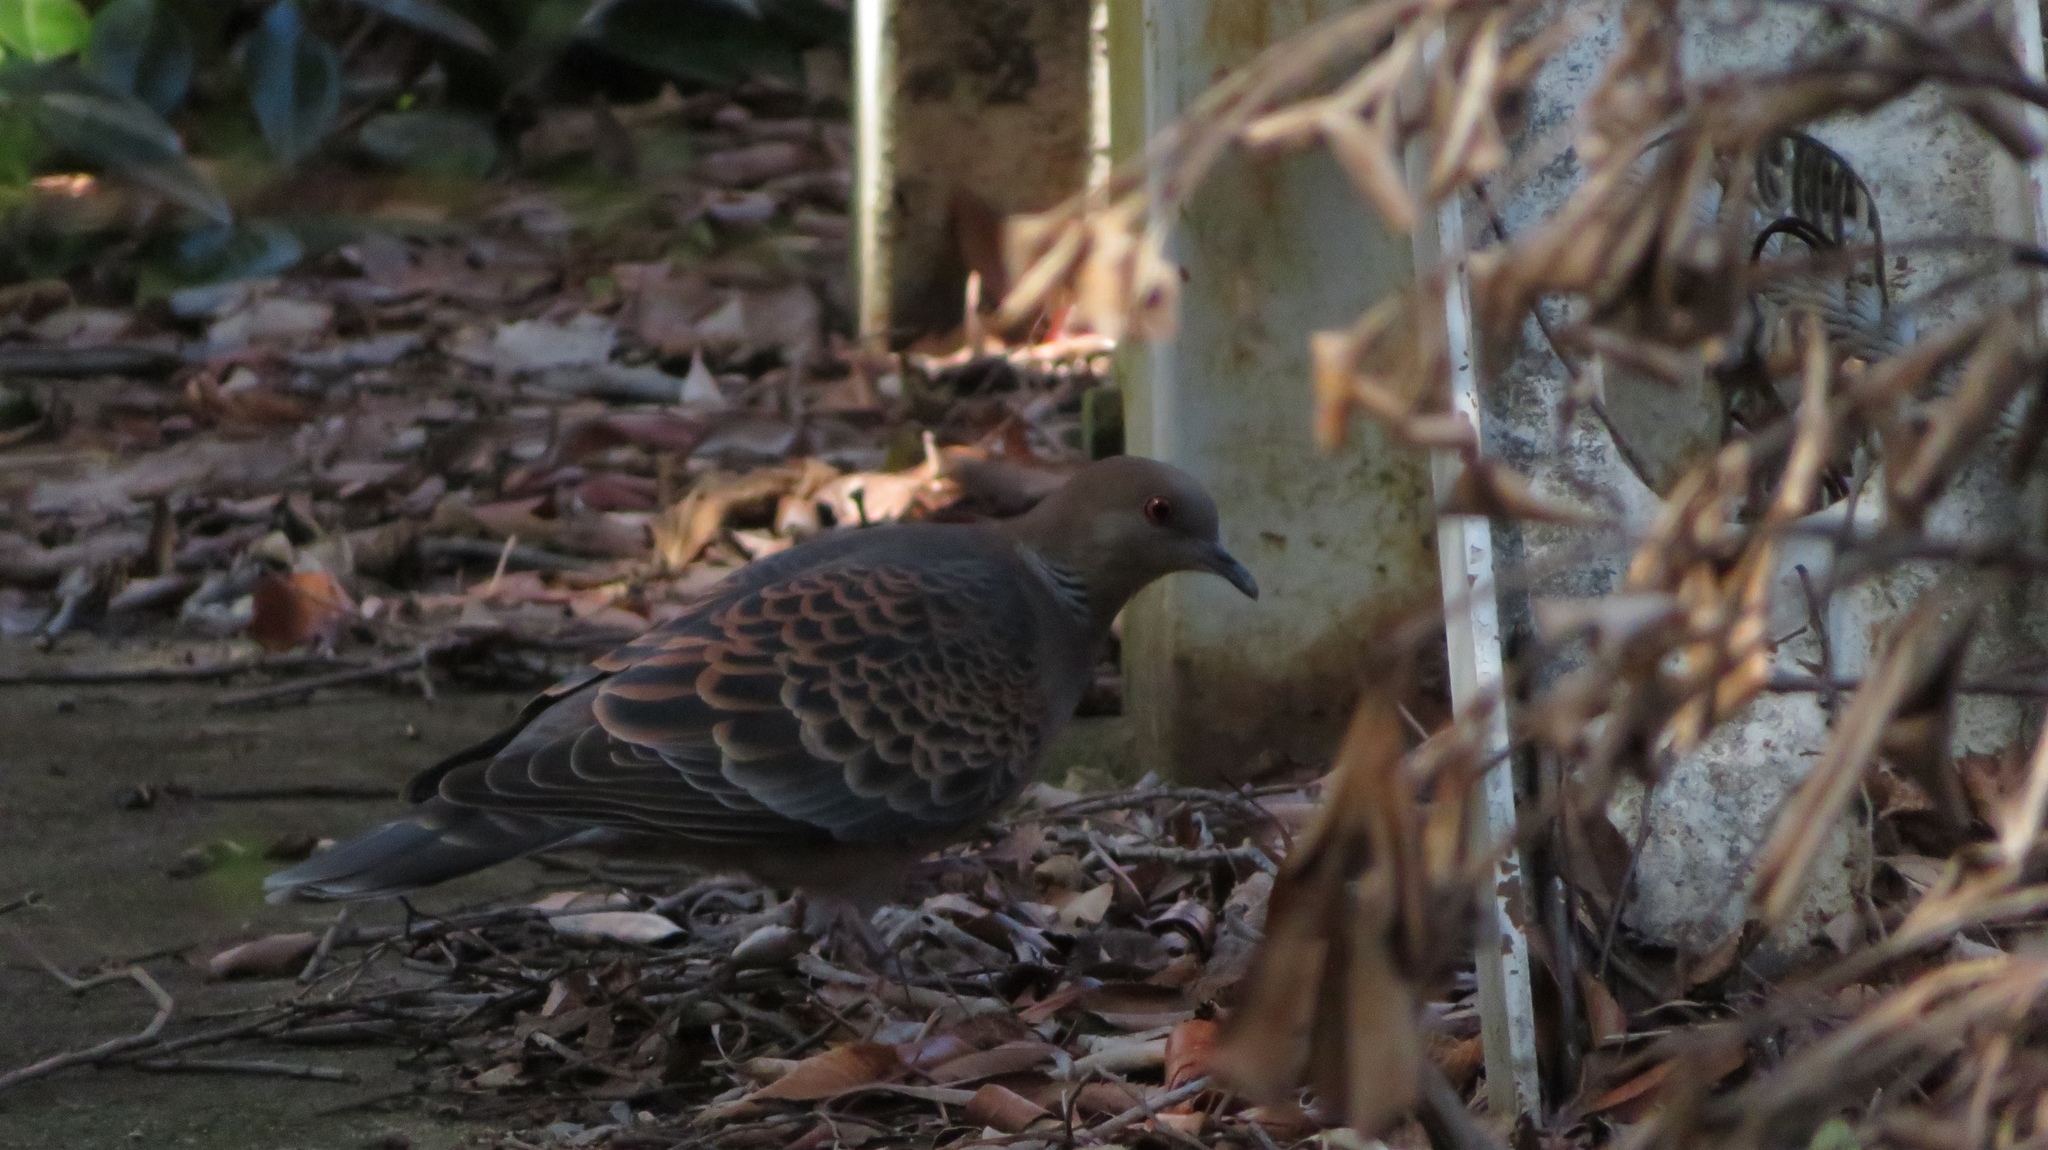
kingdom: Animalia
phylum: Chordata
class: Aves
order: Columbiformes
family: Columbidae
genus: Streptopelia
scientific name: Streptopelia orientalis
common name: Oriental turtle dove
